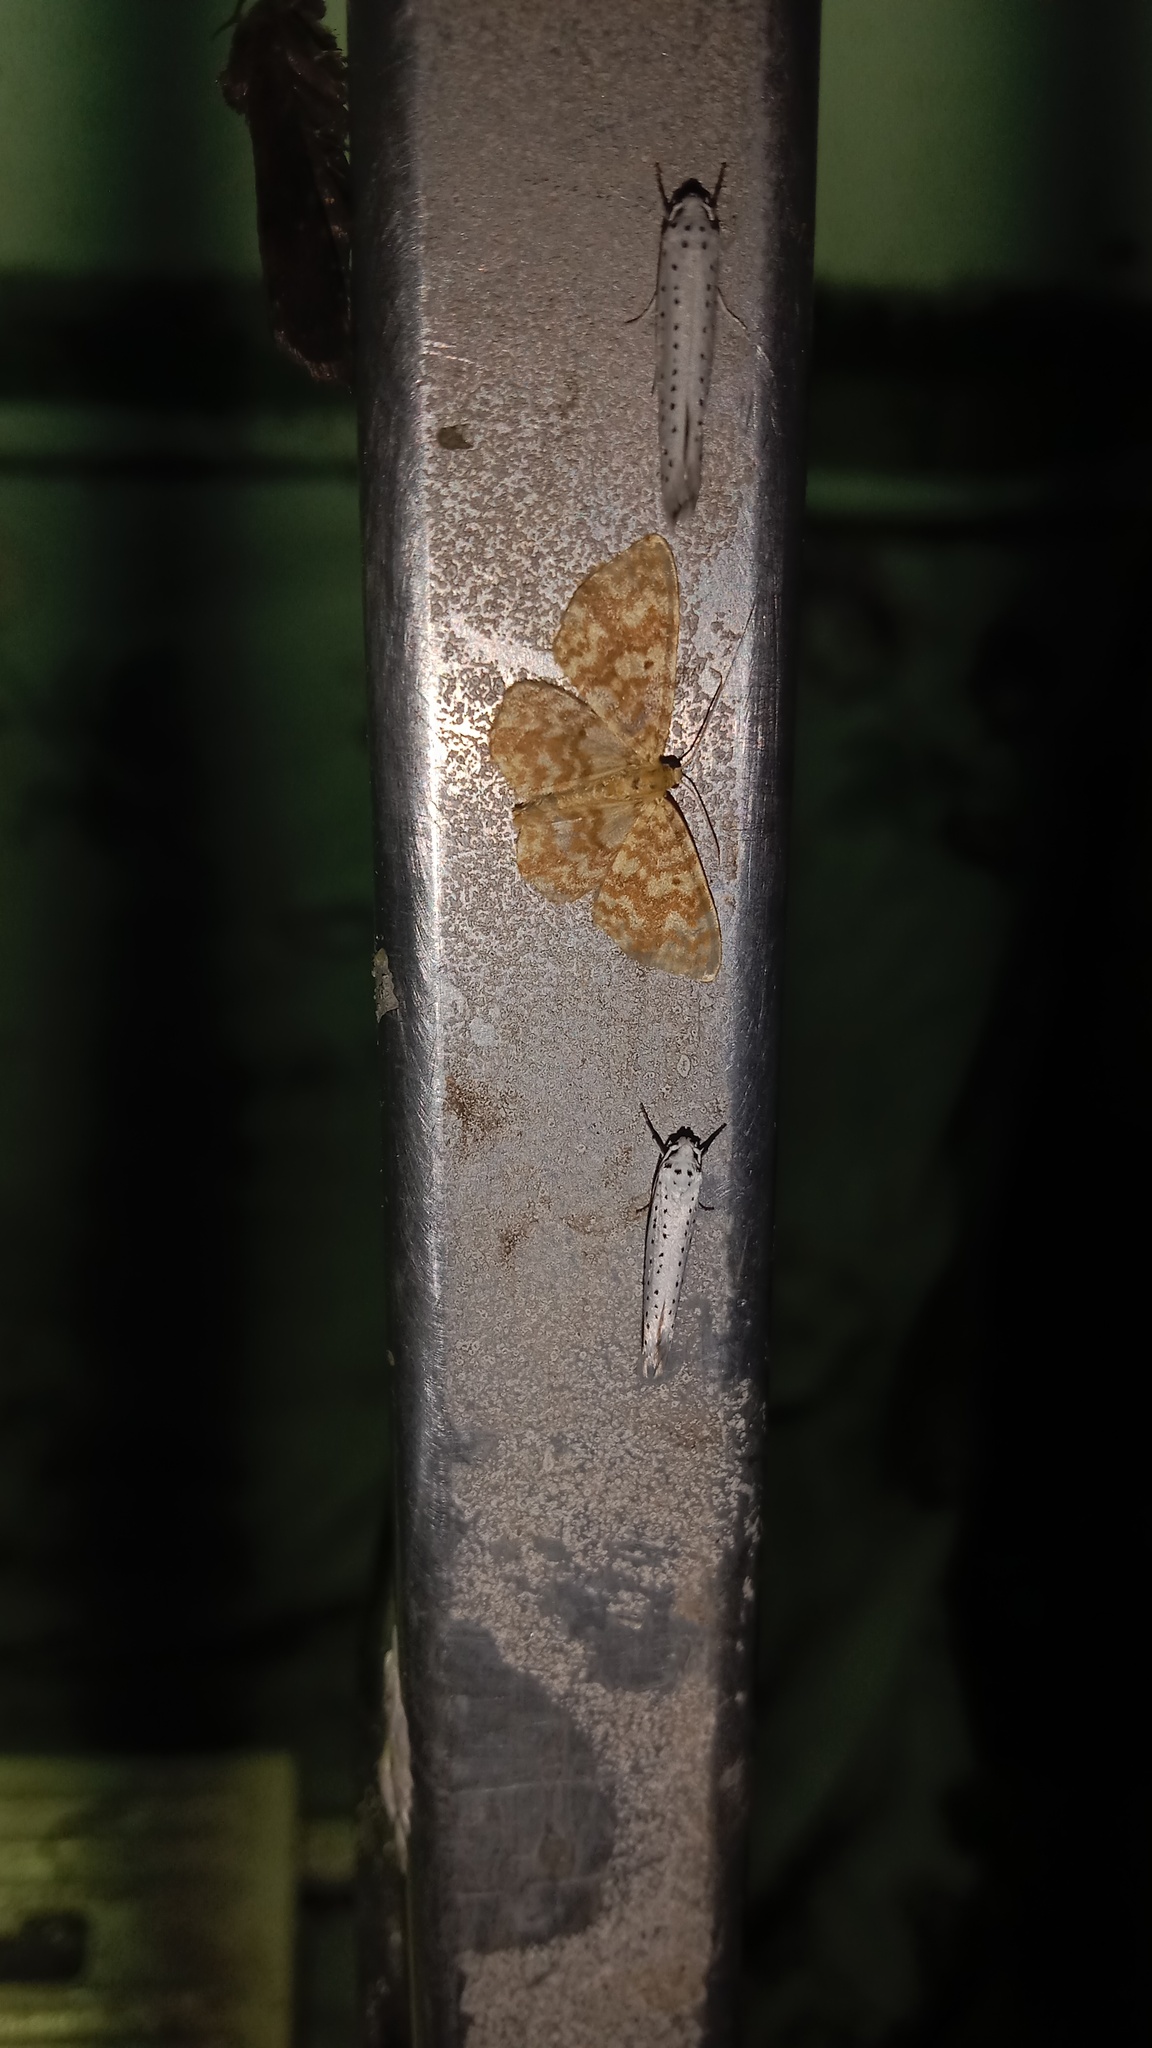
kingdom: Animalia
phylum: Arthropoda
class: Insecta
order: Lepidoptera
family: Geometridae
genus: Hydrelia
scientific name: Hydrelia flammeolaria
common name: Small yellow wave
